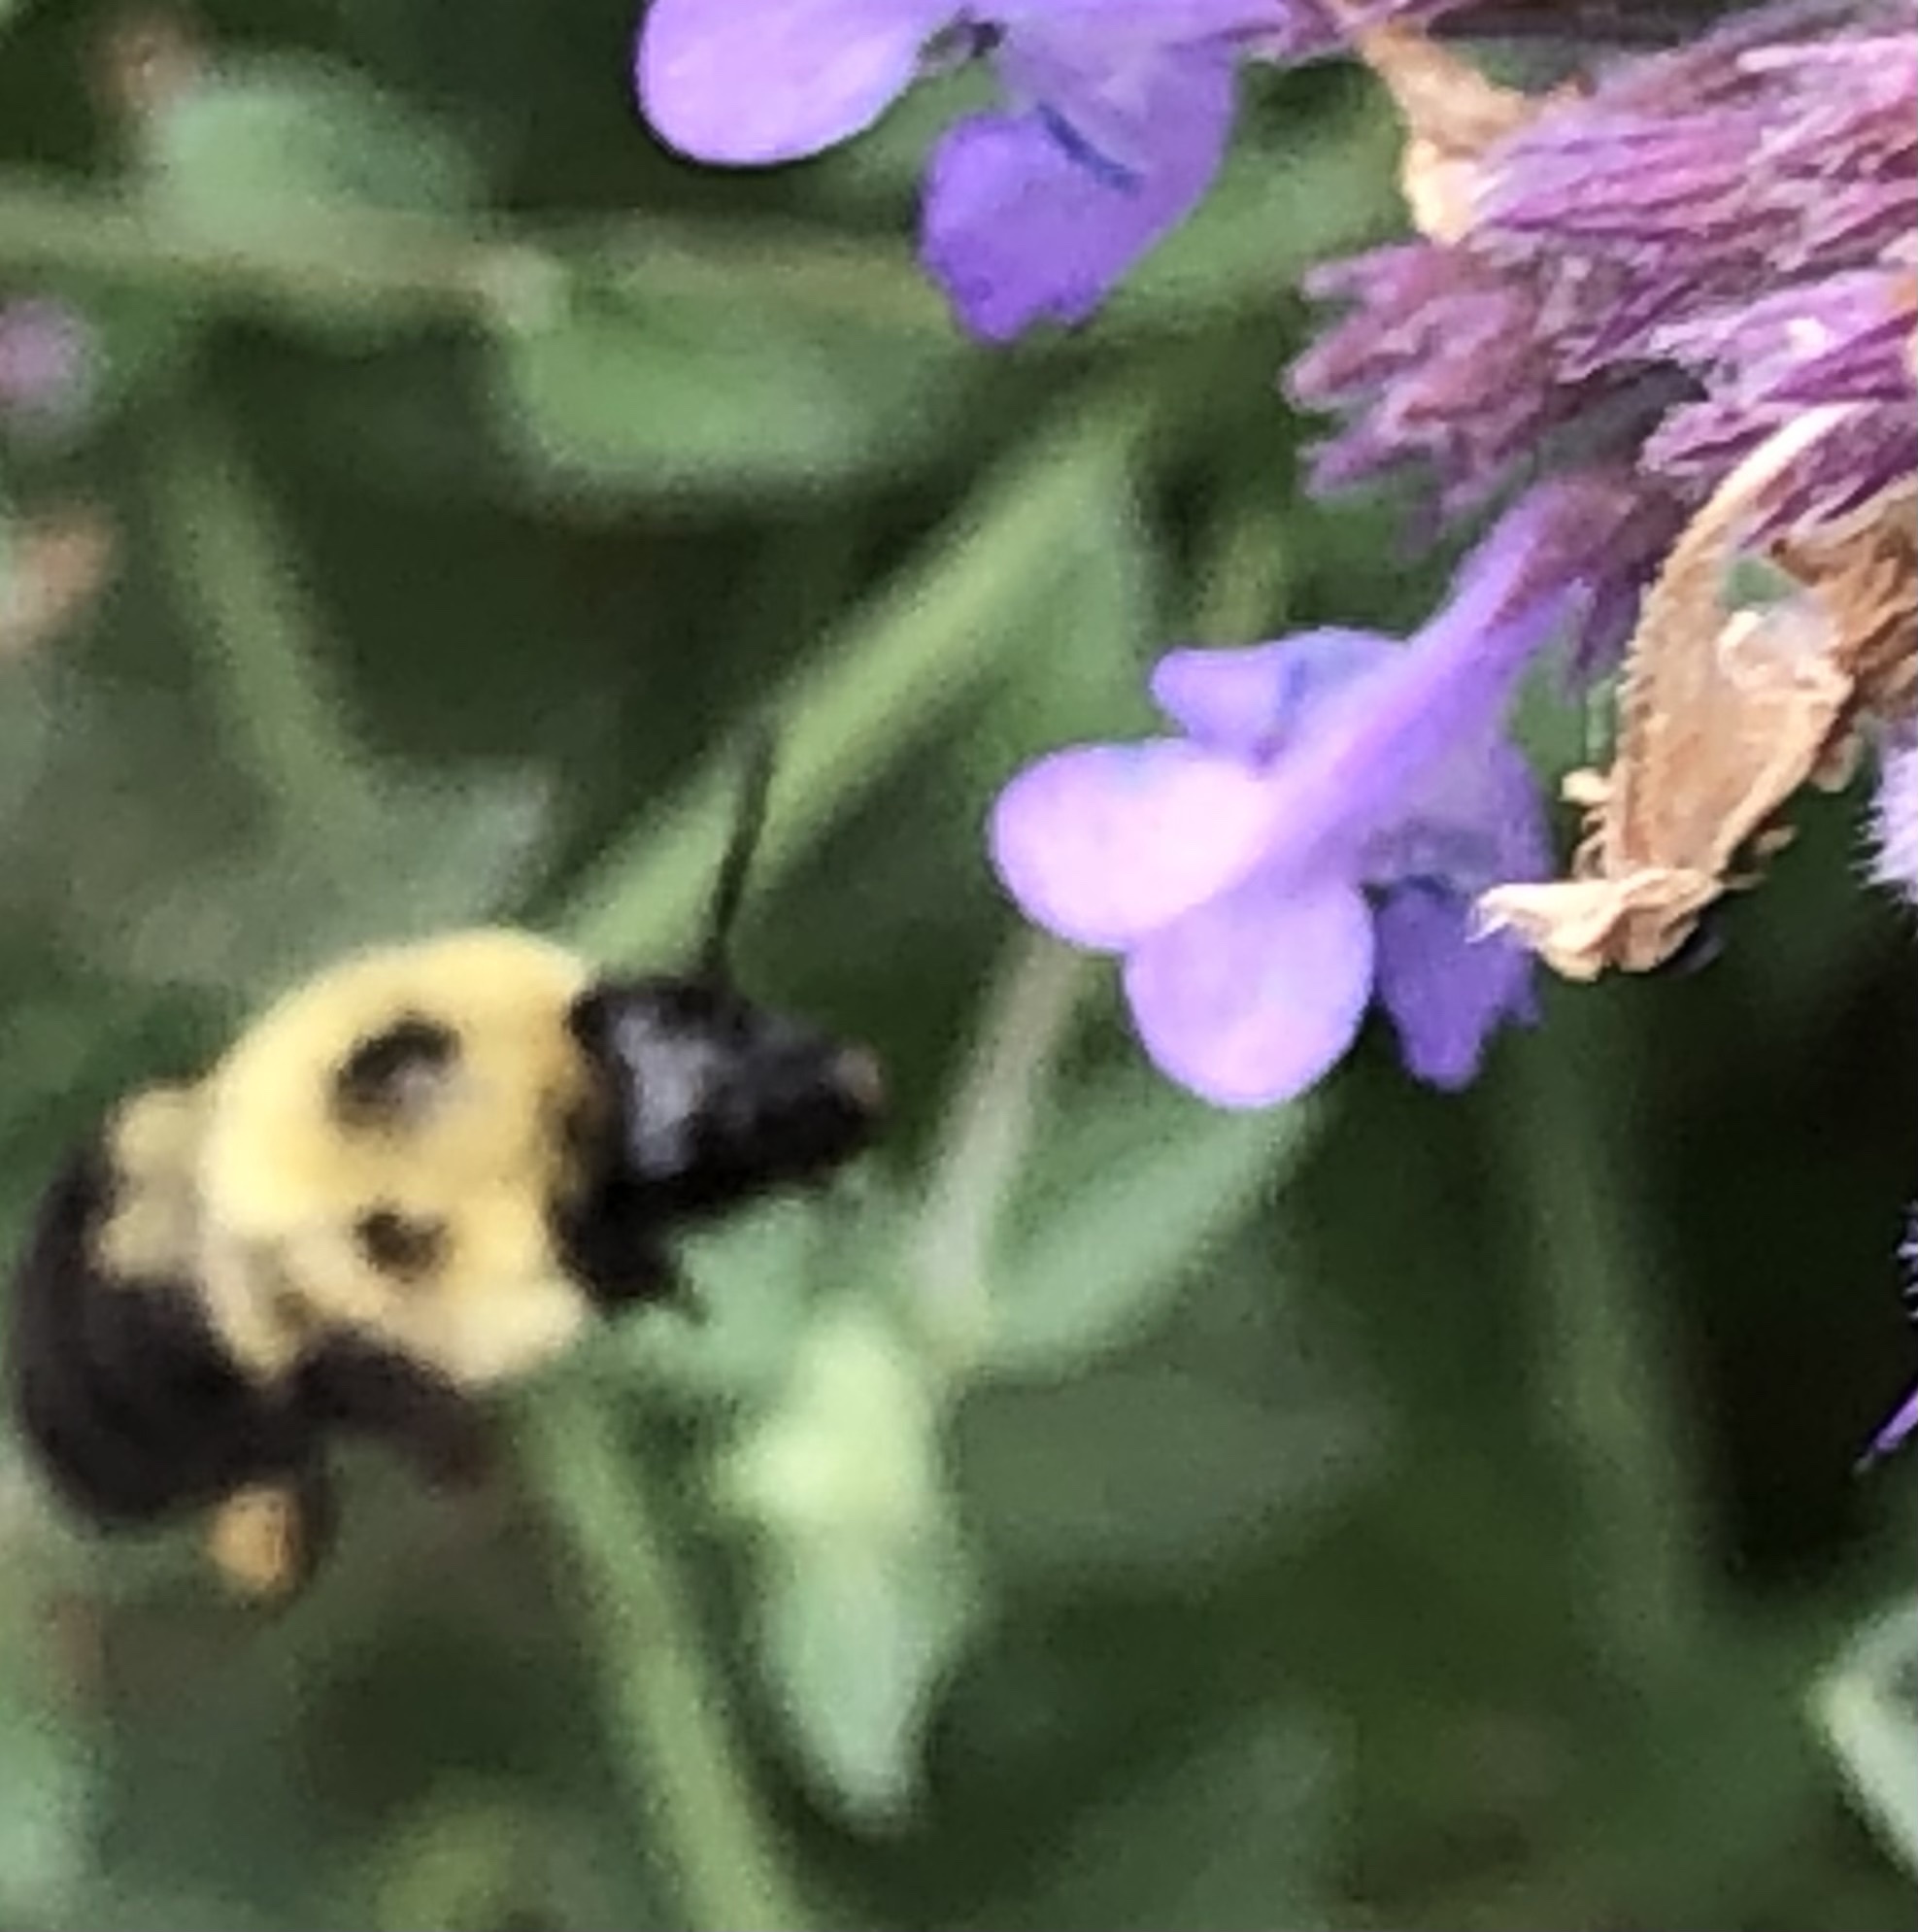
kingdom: Animalia
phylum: Arthropoda
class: Insecta
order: Hymenoptera
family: Apidae
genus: Bombus
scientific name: Bombus bimaculatus
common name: Two-spotted bumble bee
